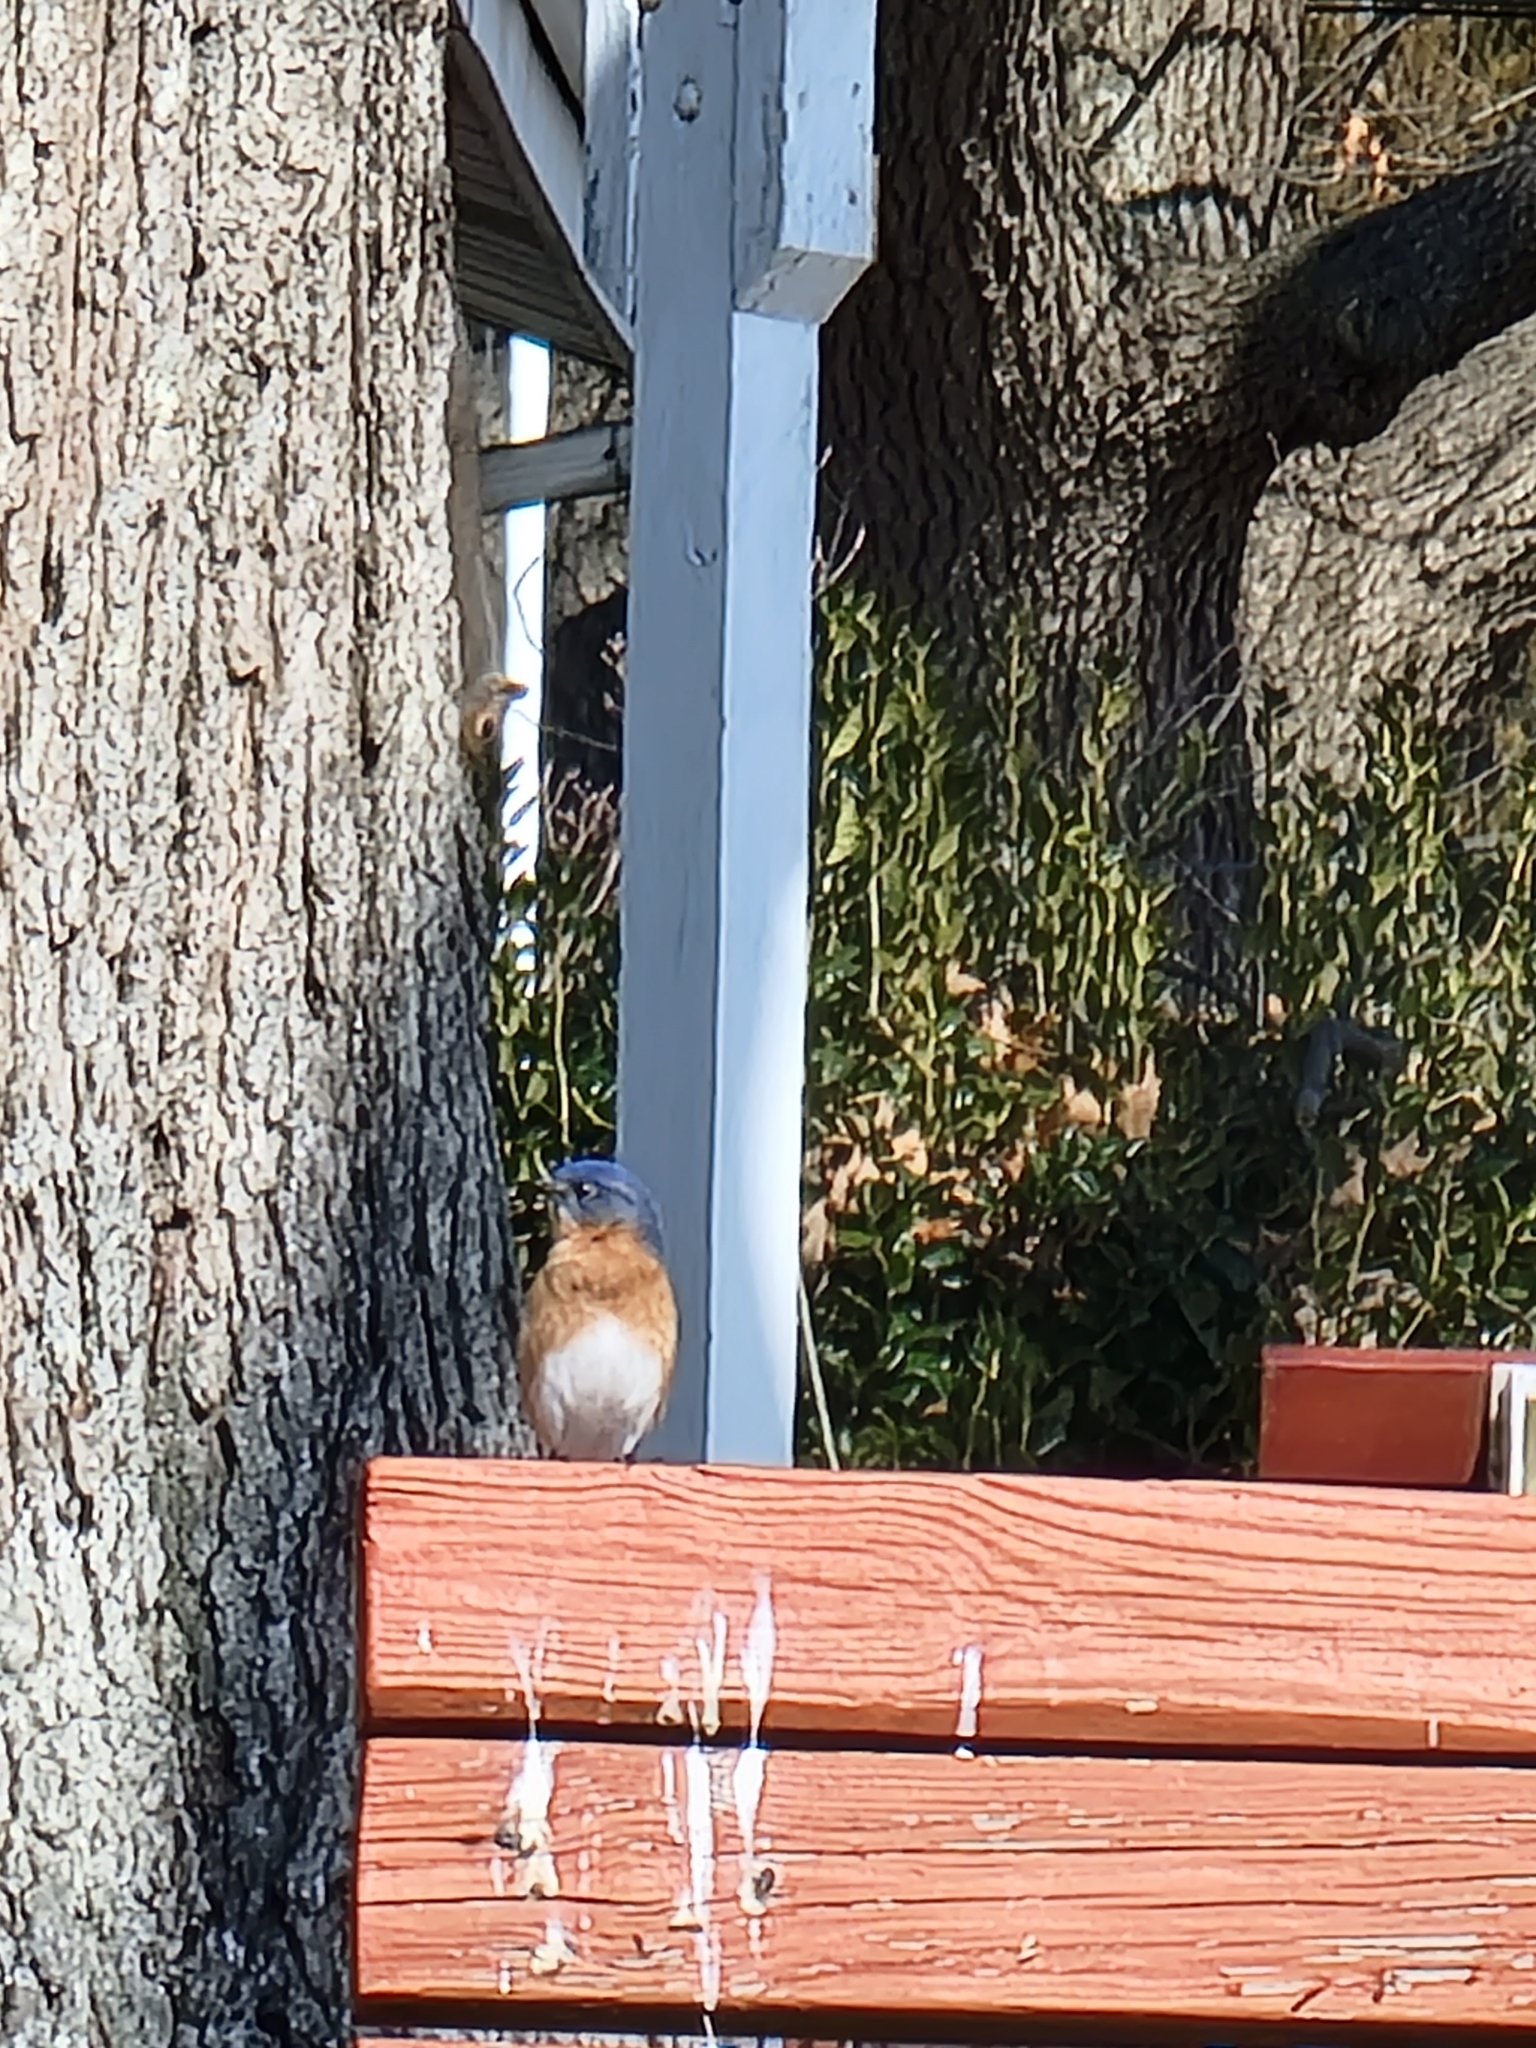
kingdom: Animalia
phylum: Chordata
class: Aves
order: Passeriformes
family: Turdidae
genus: Sialia
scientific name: Sialia sialis
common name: Eastern bluebird
